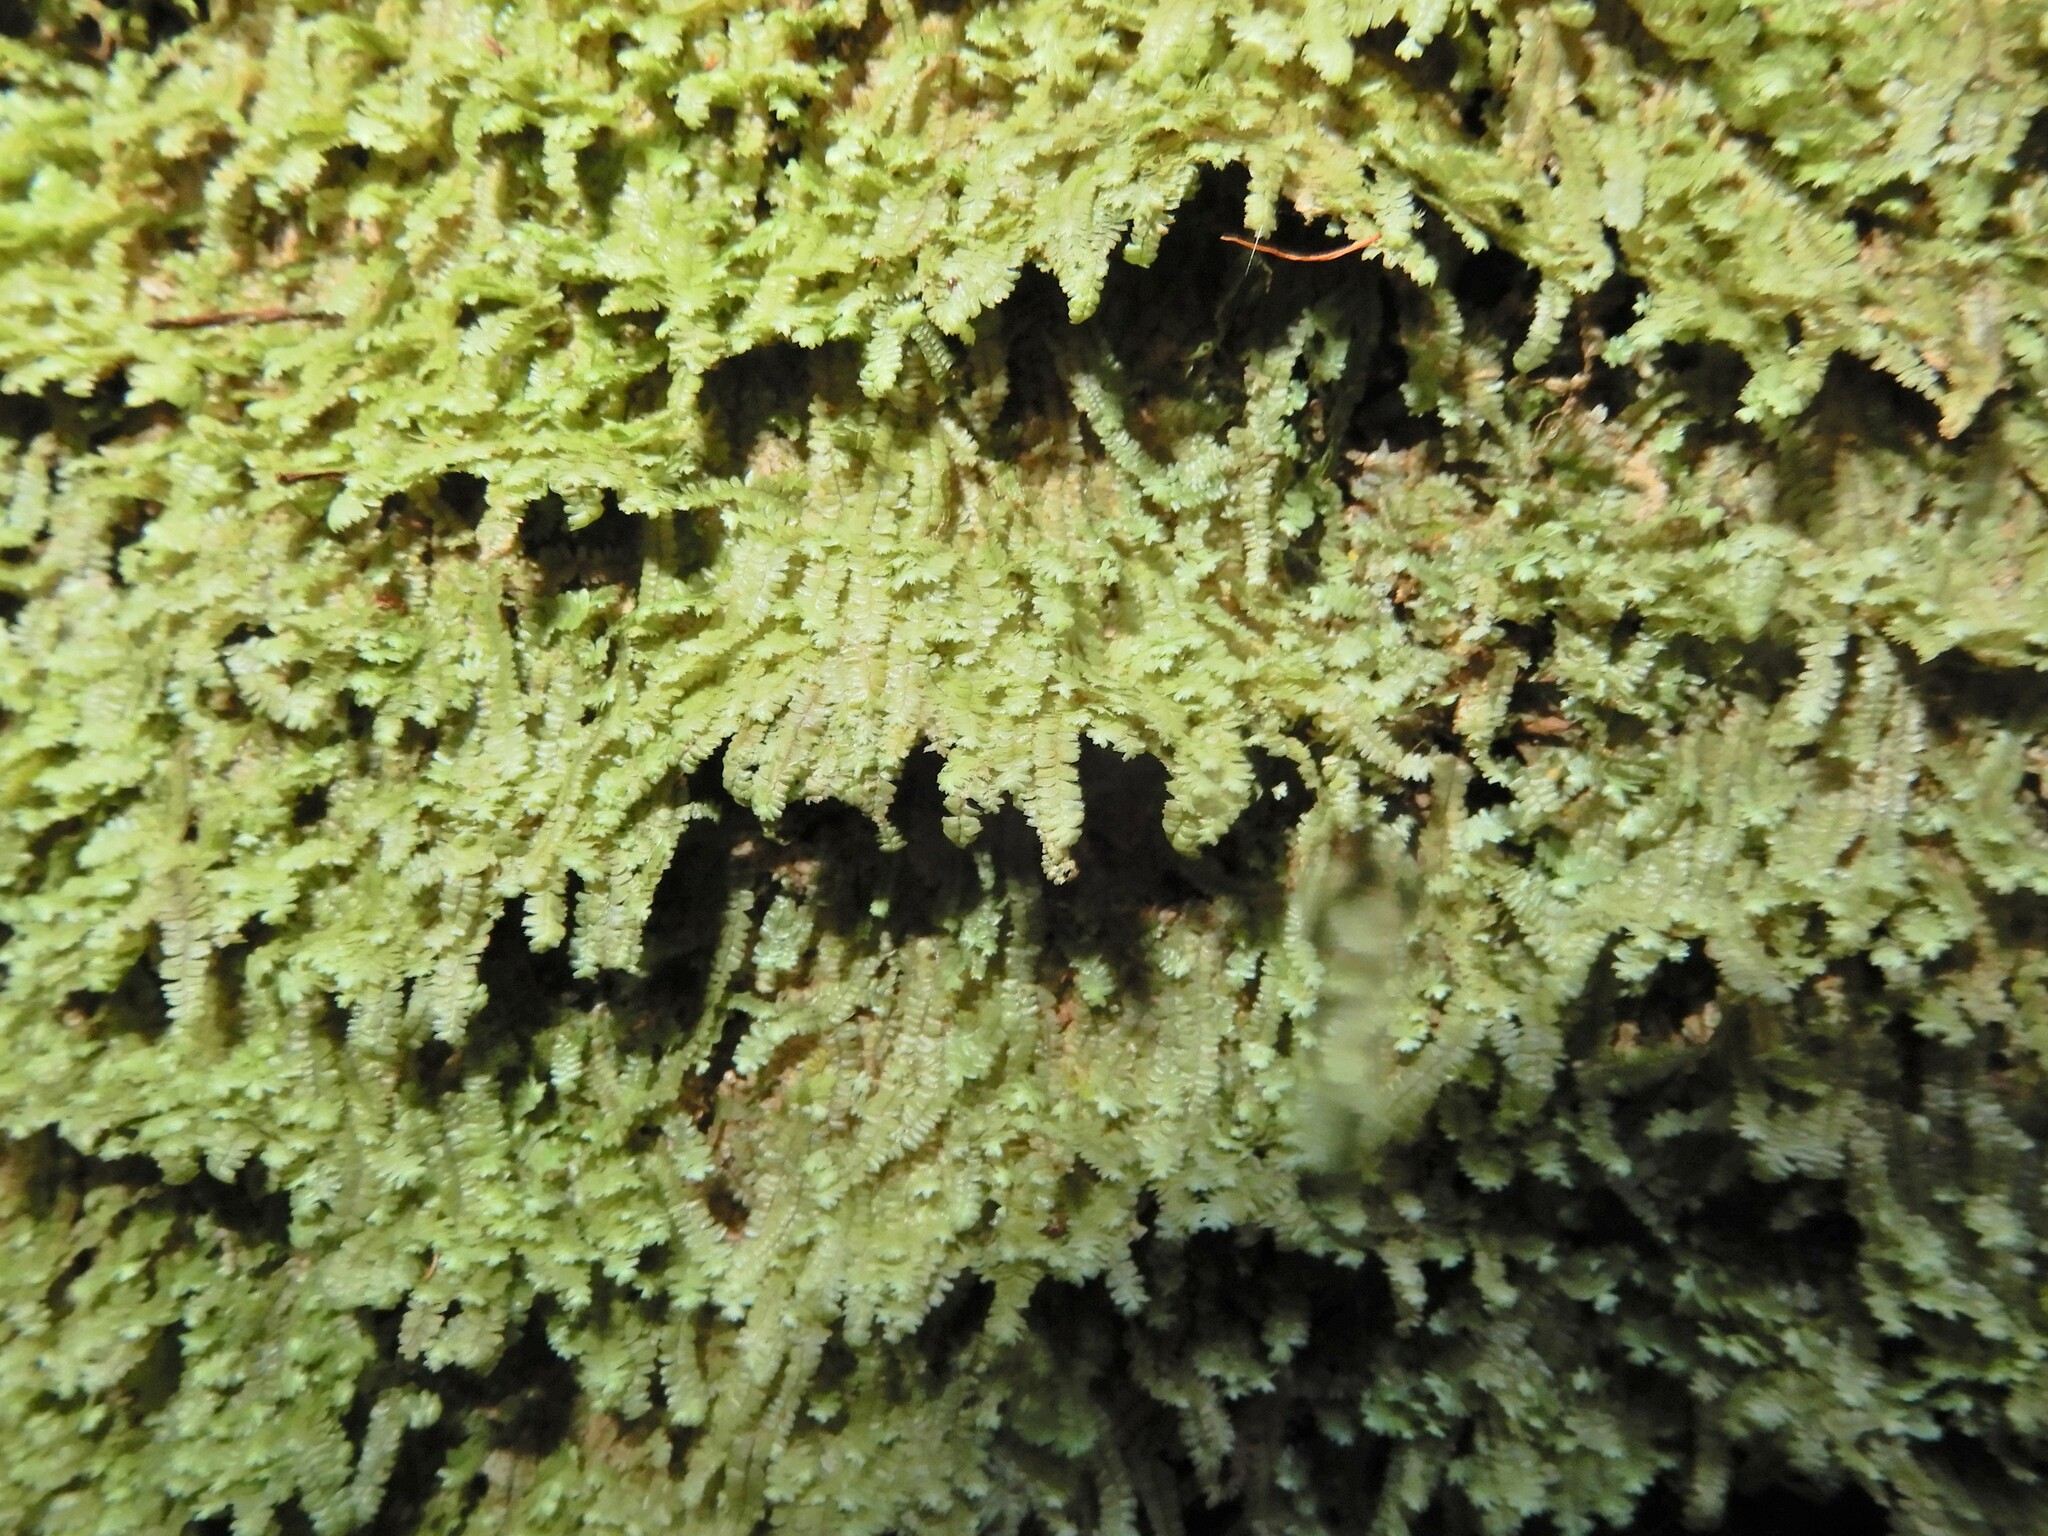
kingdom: Plantae
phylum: Marchantiophyta
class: Jungermanniopsida
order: Jungermanniales
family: Lepidoziaceae
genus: Bazzania
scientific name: Bazzania tayloriana
